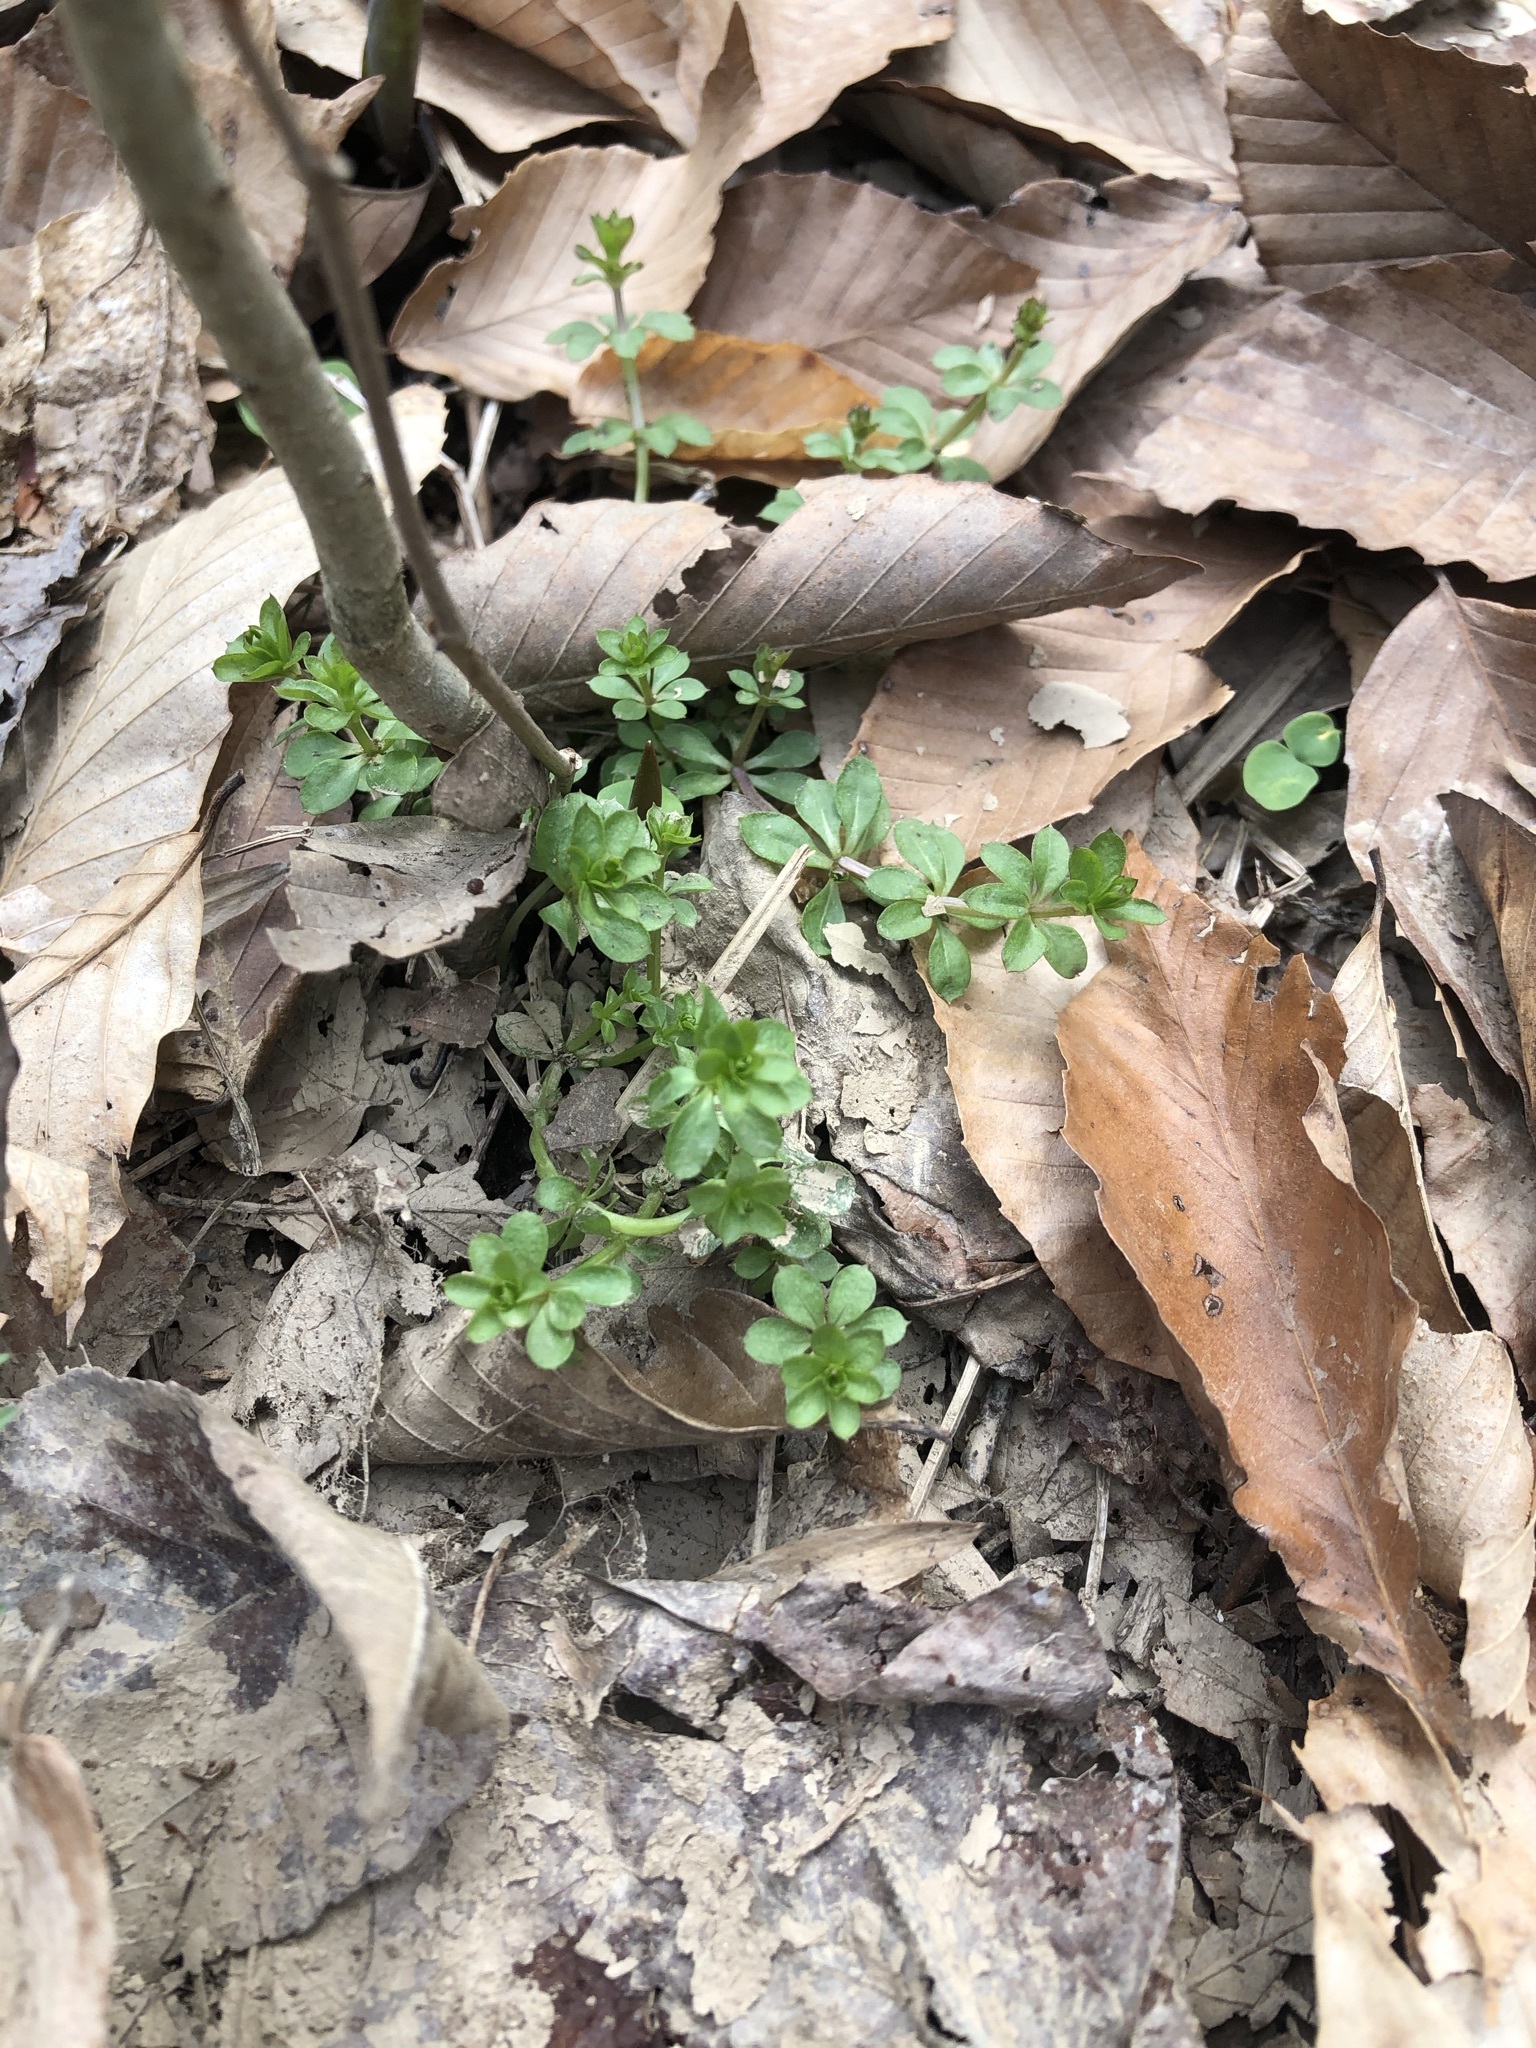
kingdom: Plantae
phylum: Tracheophyta
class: Magnoliopsida
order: Gentianales
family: Rubiaceae
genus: Galium
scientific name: Galium triflorum
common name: Fragrant bedstraw
